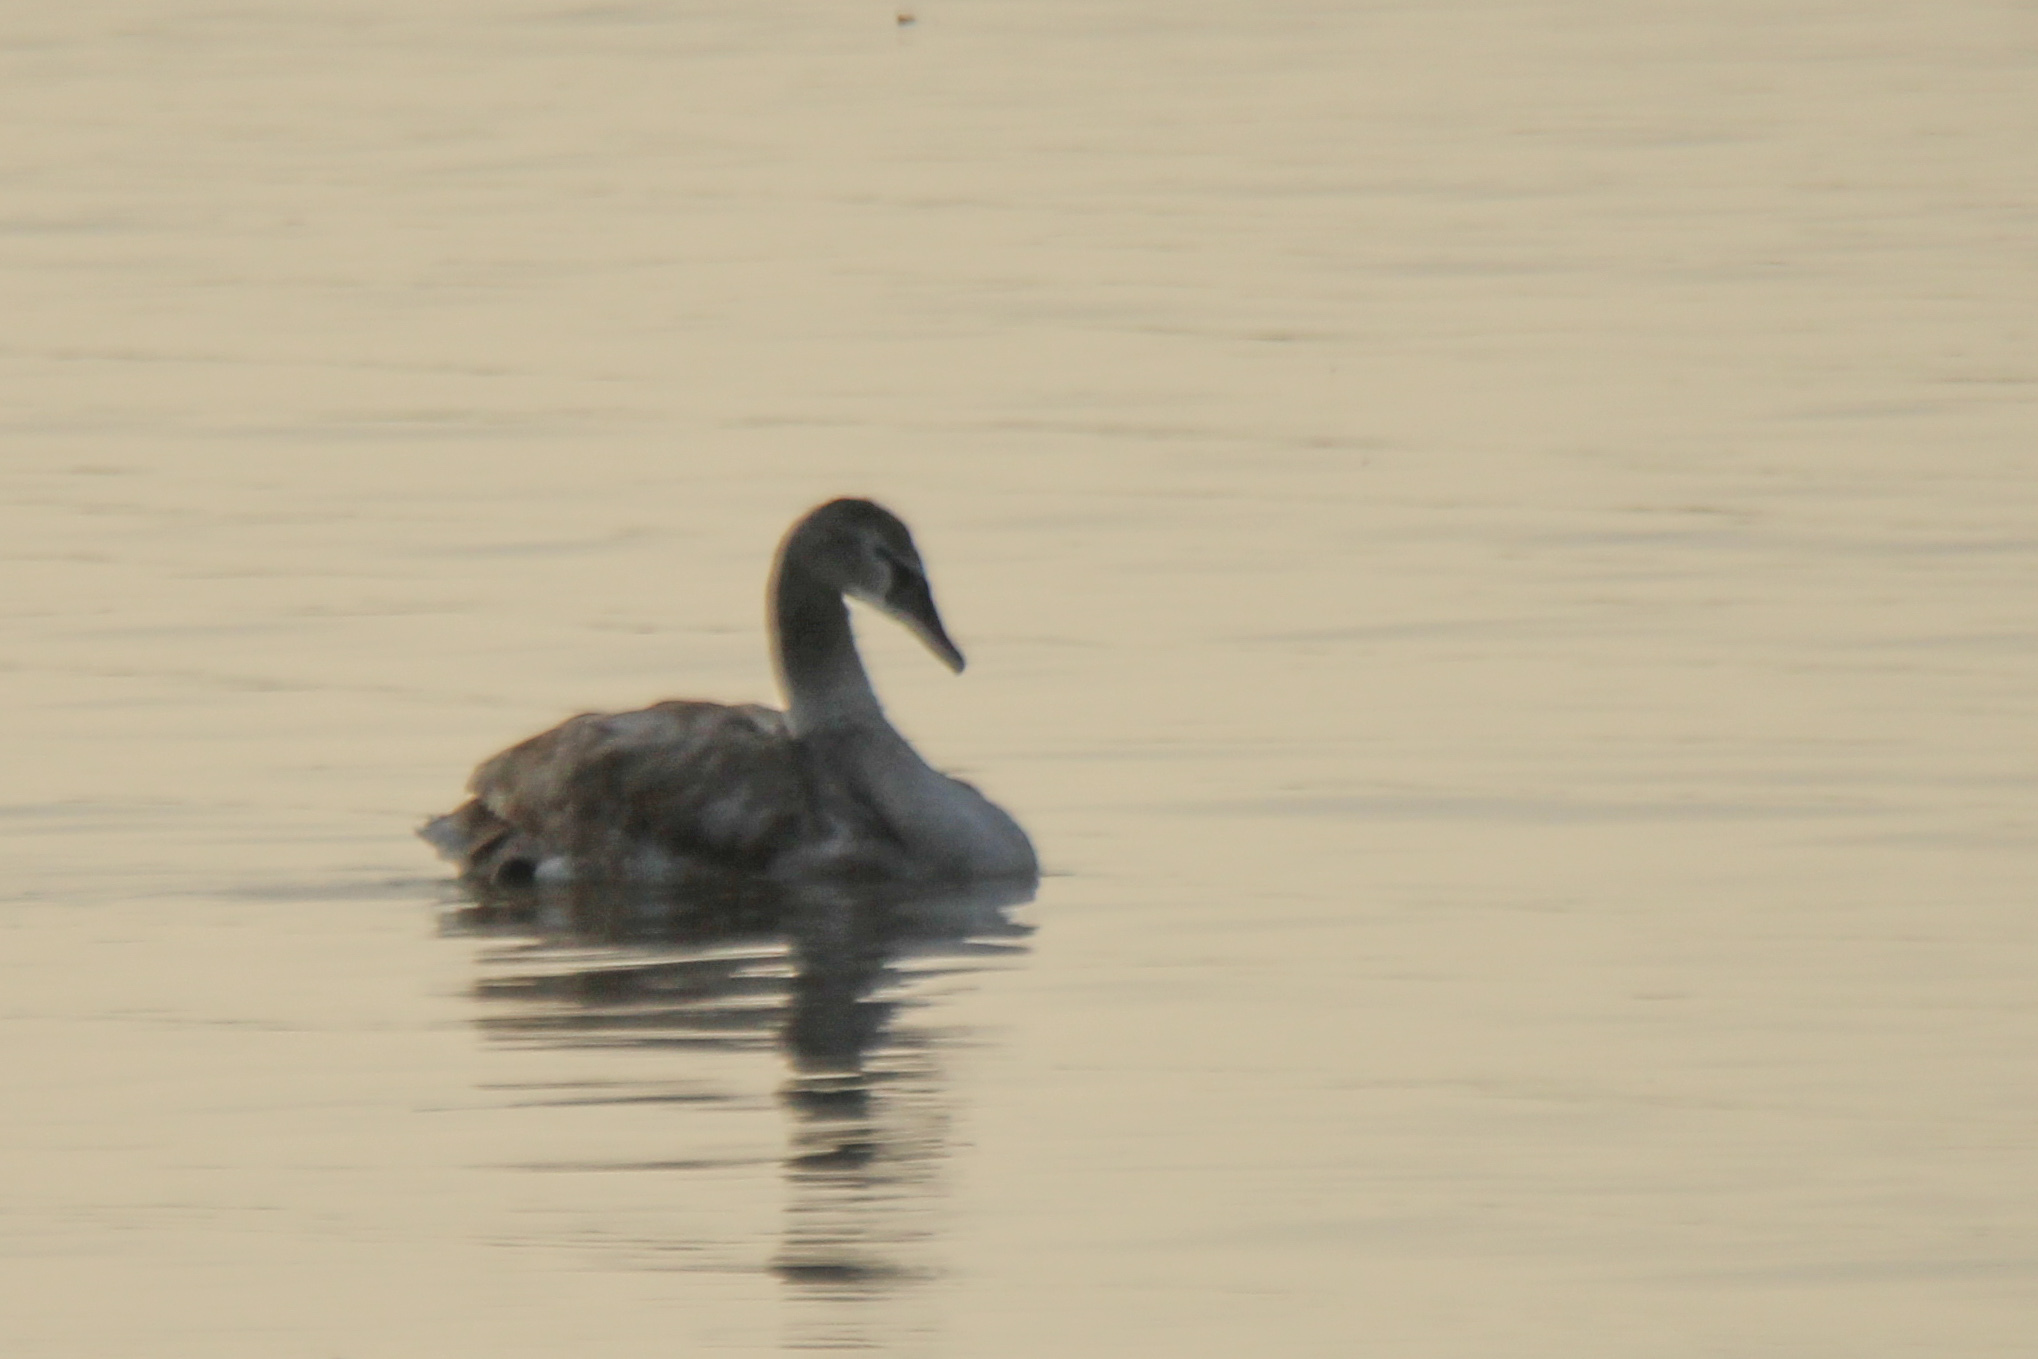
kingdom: Animalia
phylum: Chordata
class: Aves
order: Anseriformes
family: Anatidae
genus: Cygnus
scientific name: Cygnus olor
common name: Mute swan
